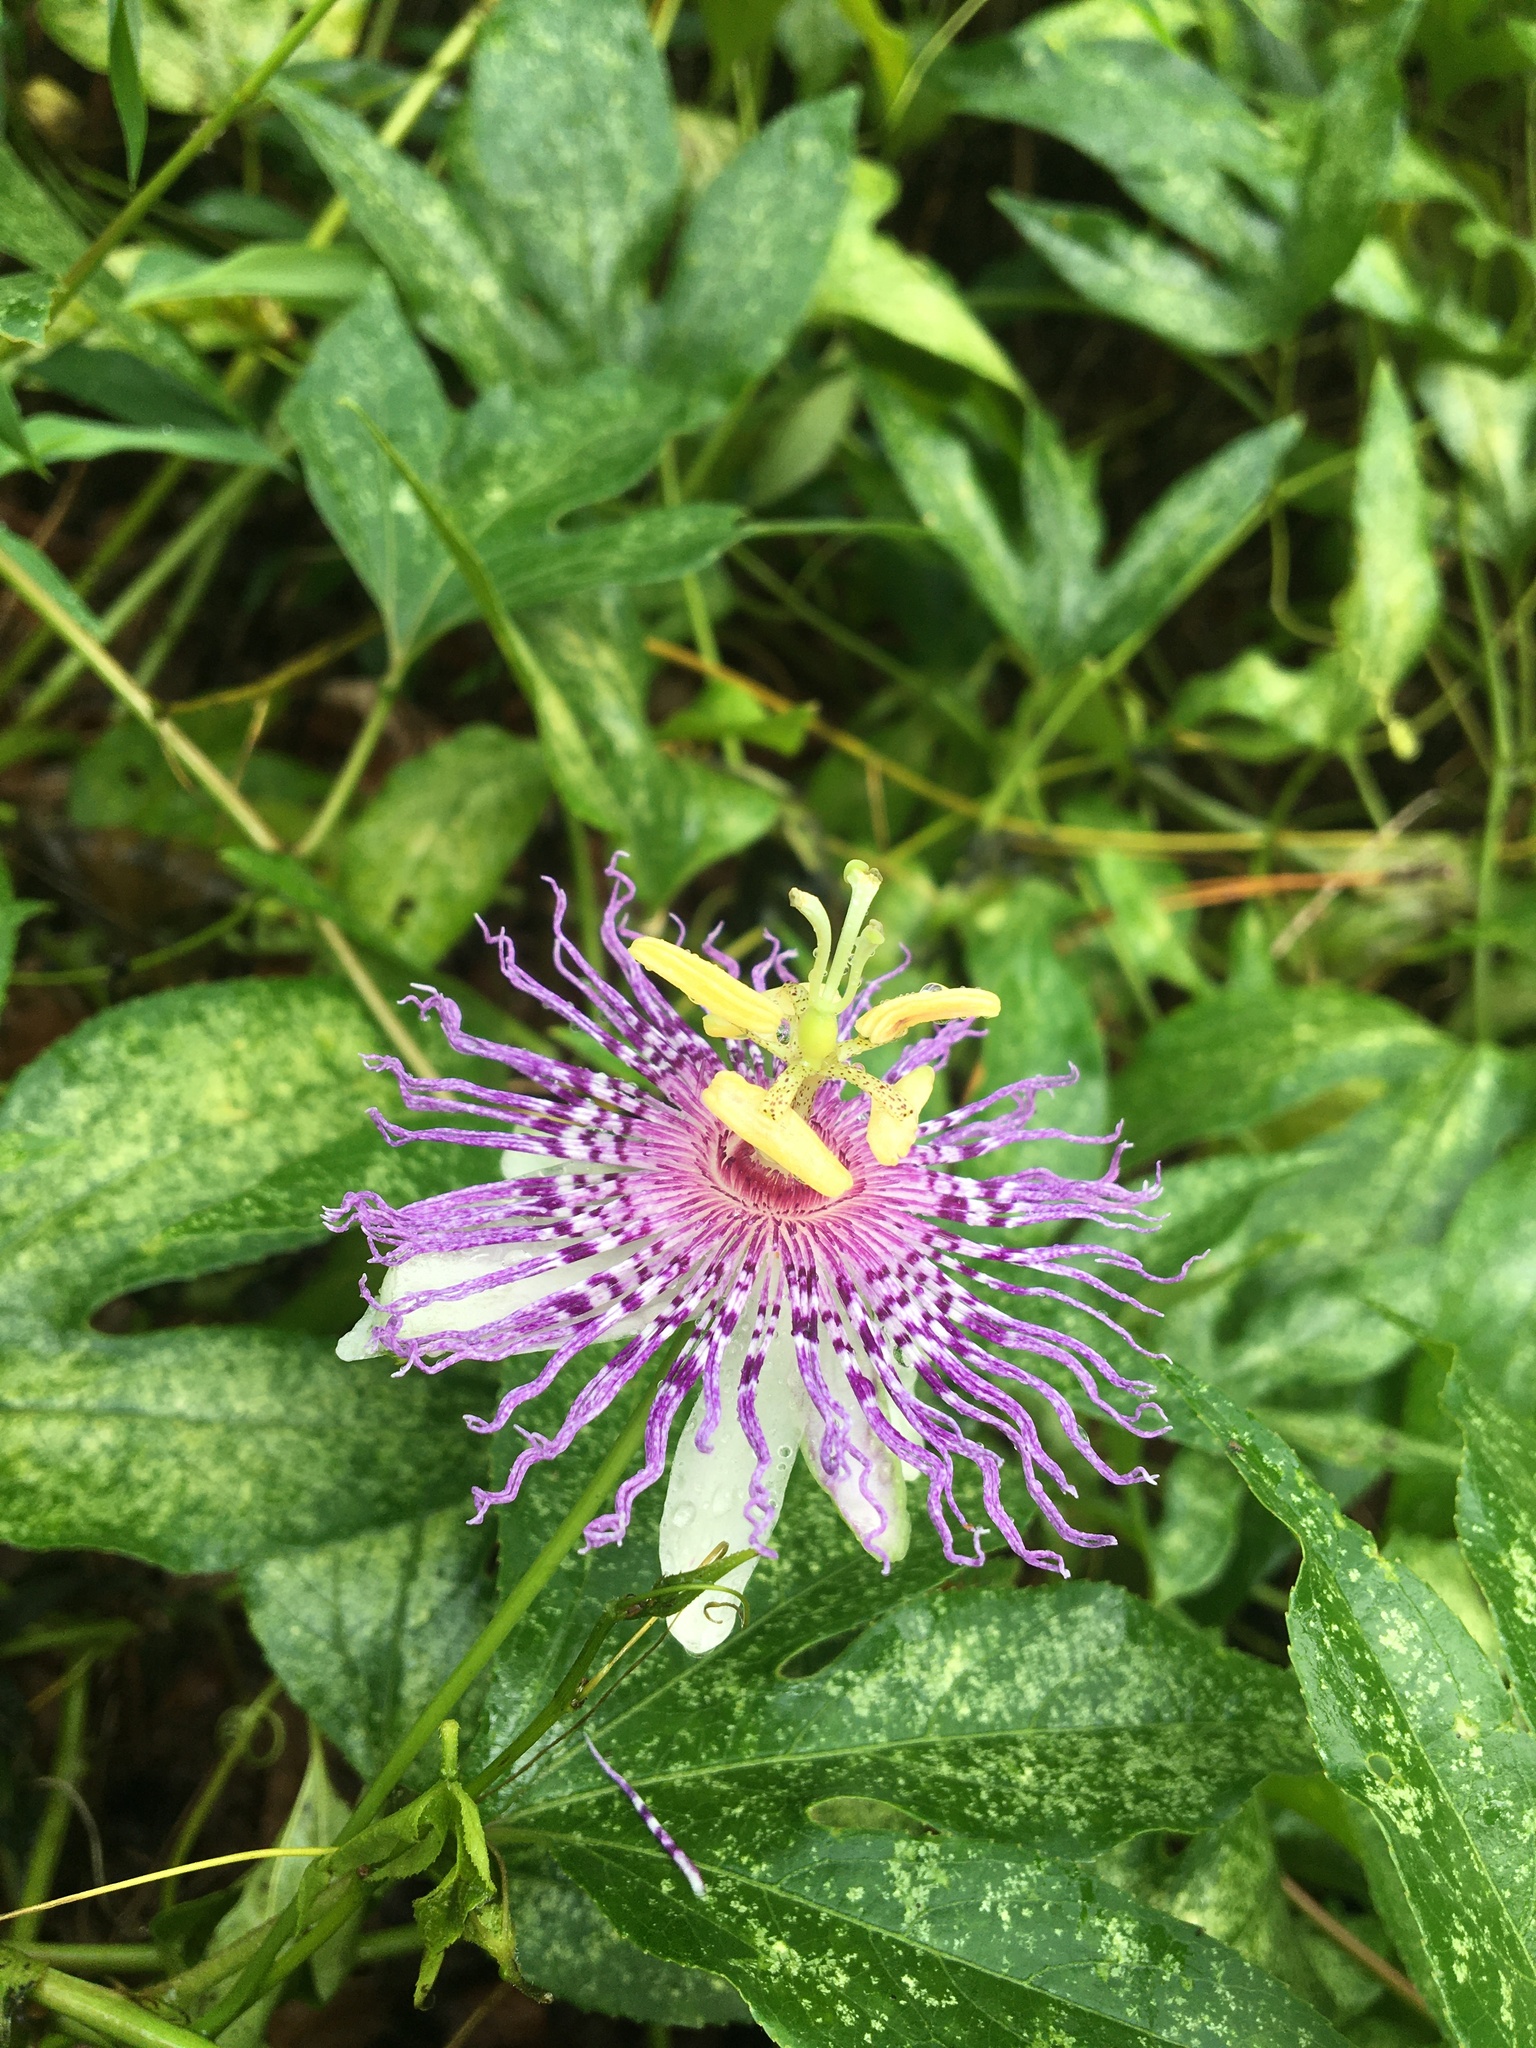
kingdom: Plantae
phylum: Tracheophyta
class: Magnoliopsida
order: Malpighiales
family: Passifloraceae
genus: Passiflora
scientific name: Passiflora incarnata
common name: Apricot-vine
